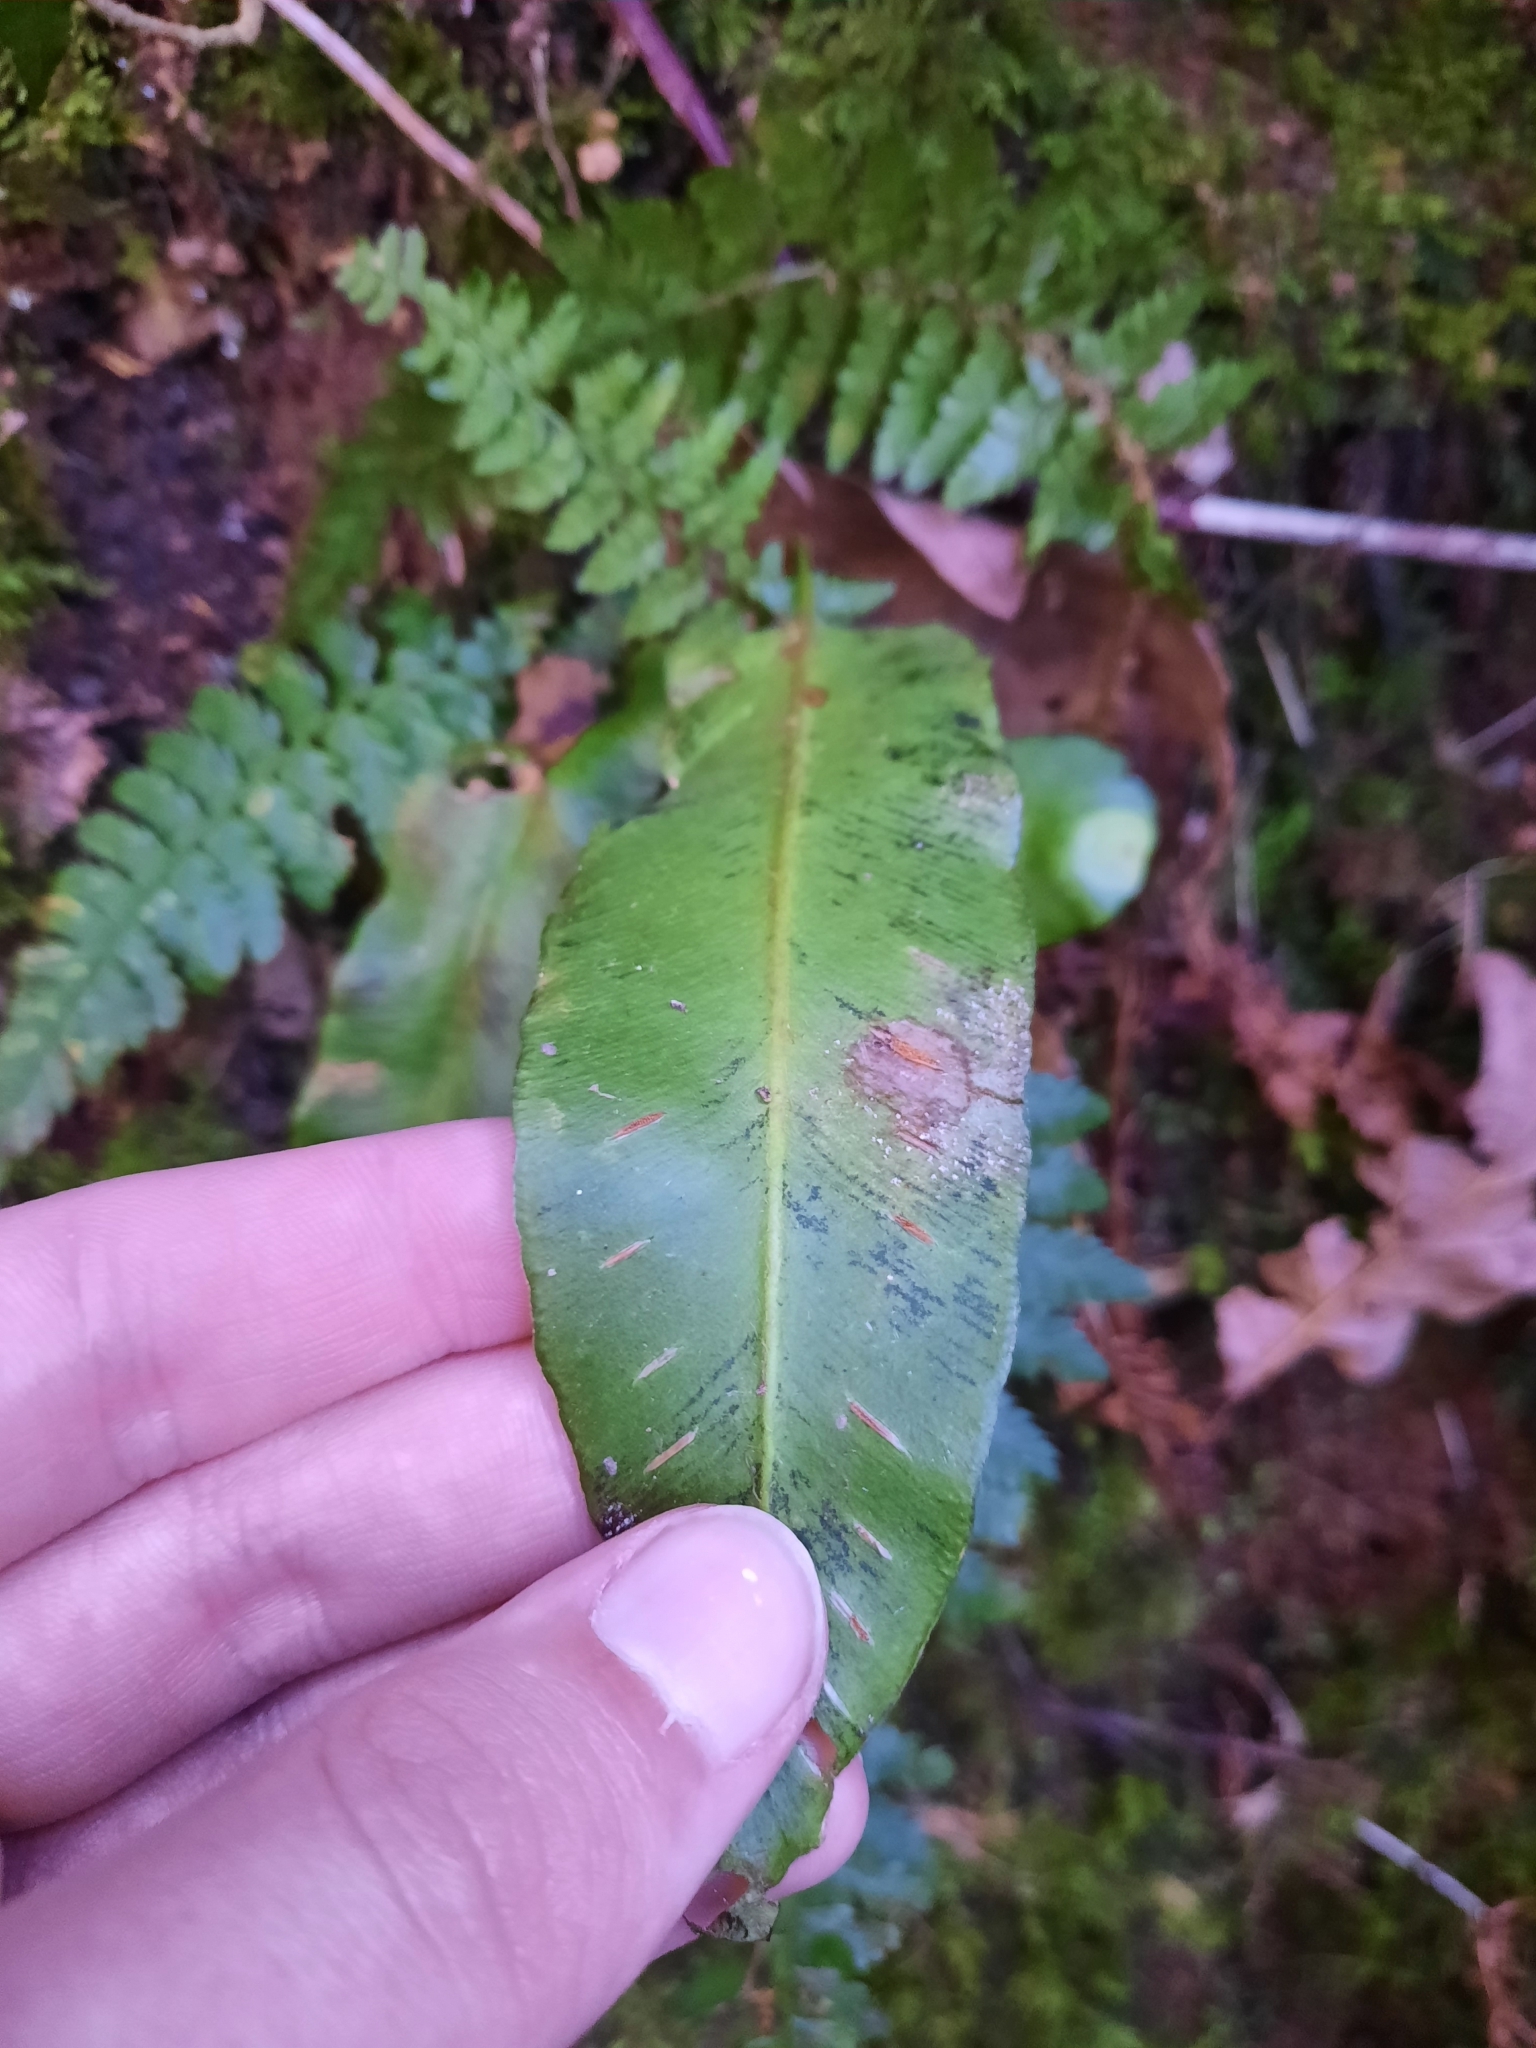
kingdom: Plantae
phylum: Tracheophyta
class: Polypodiopsida
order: Polypodiales
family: Aspleniaceae
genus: Asplenium
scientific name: Asplenium scolopendrium
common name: Hart's-tongue fern
